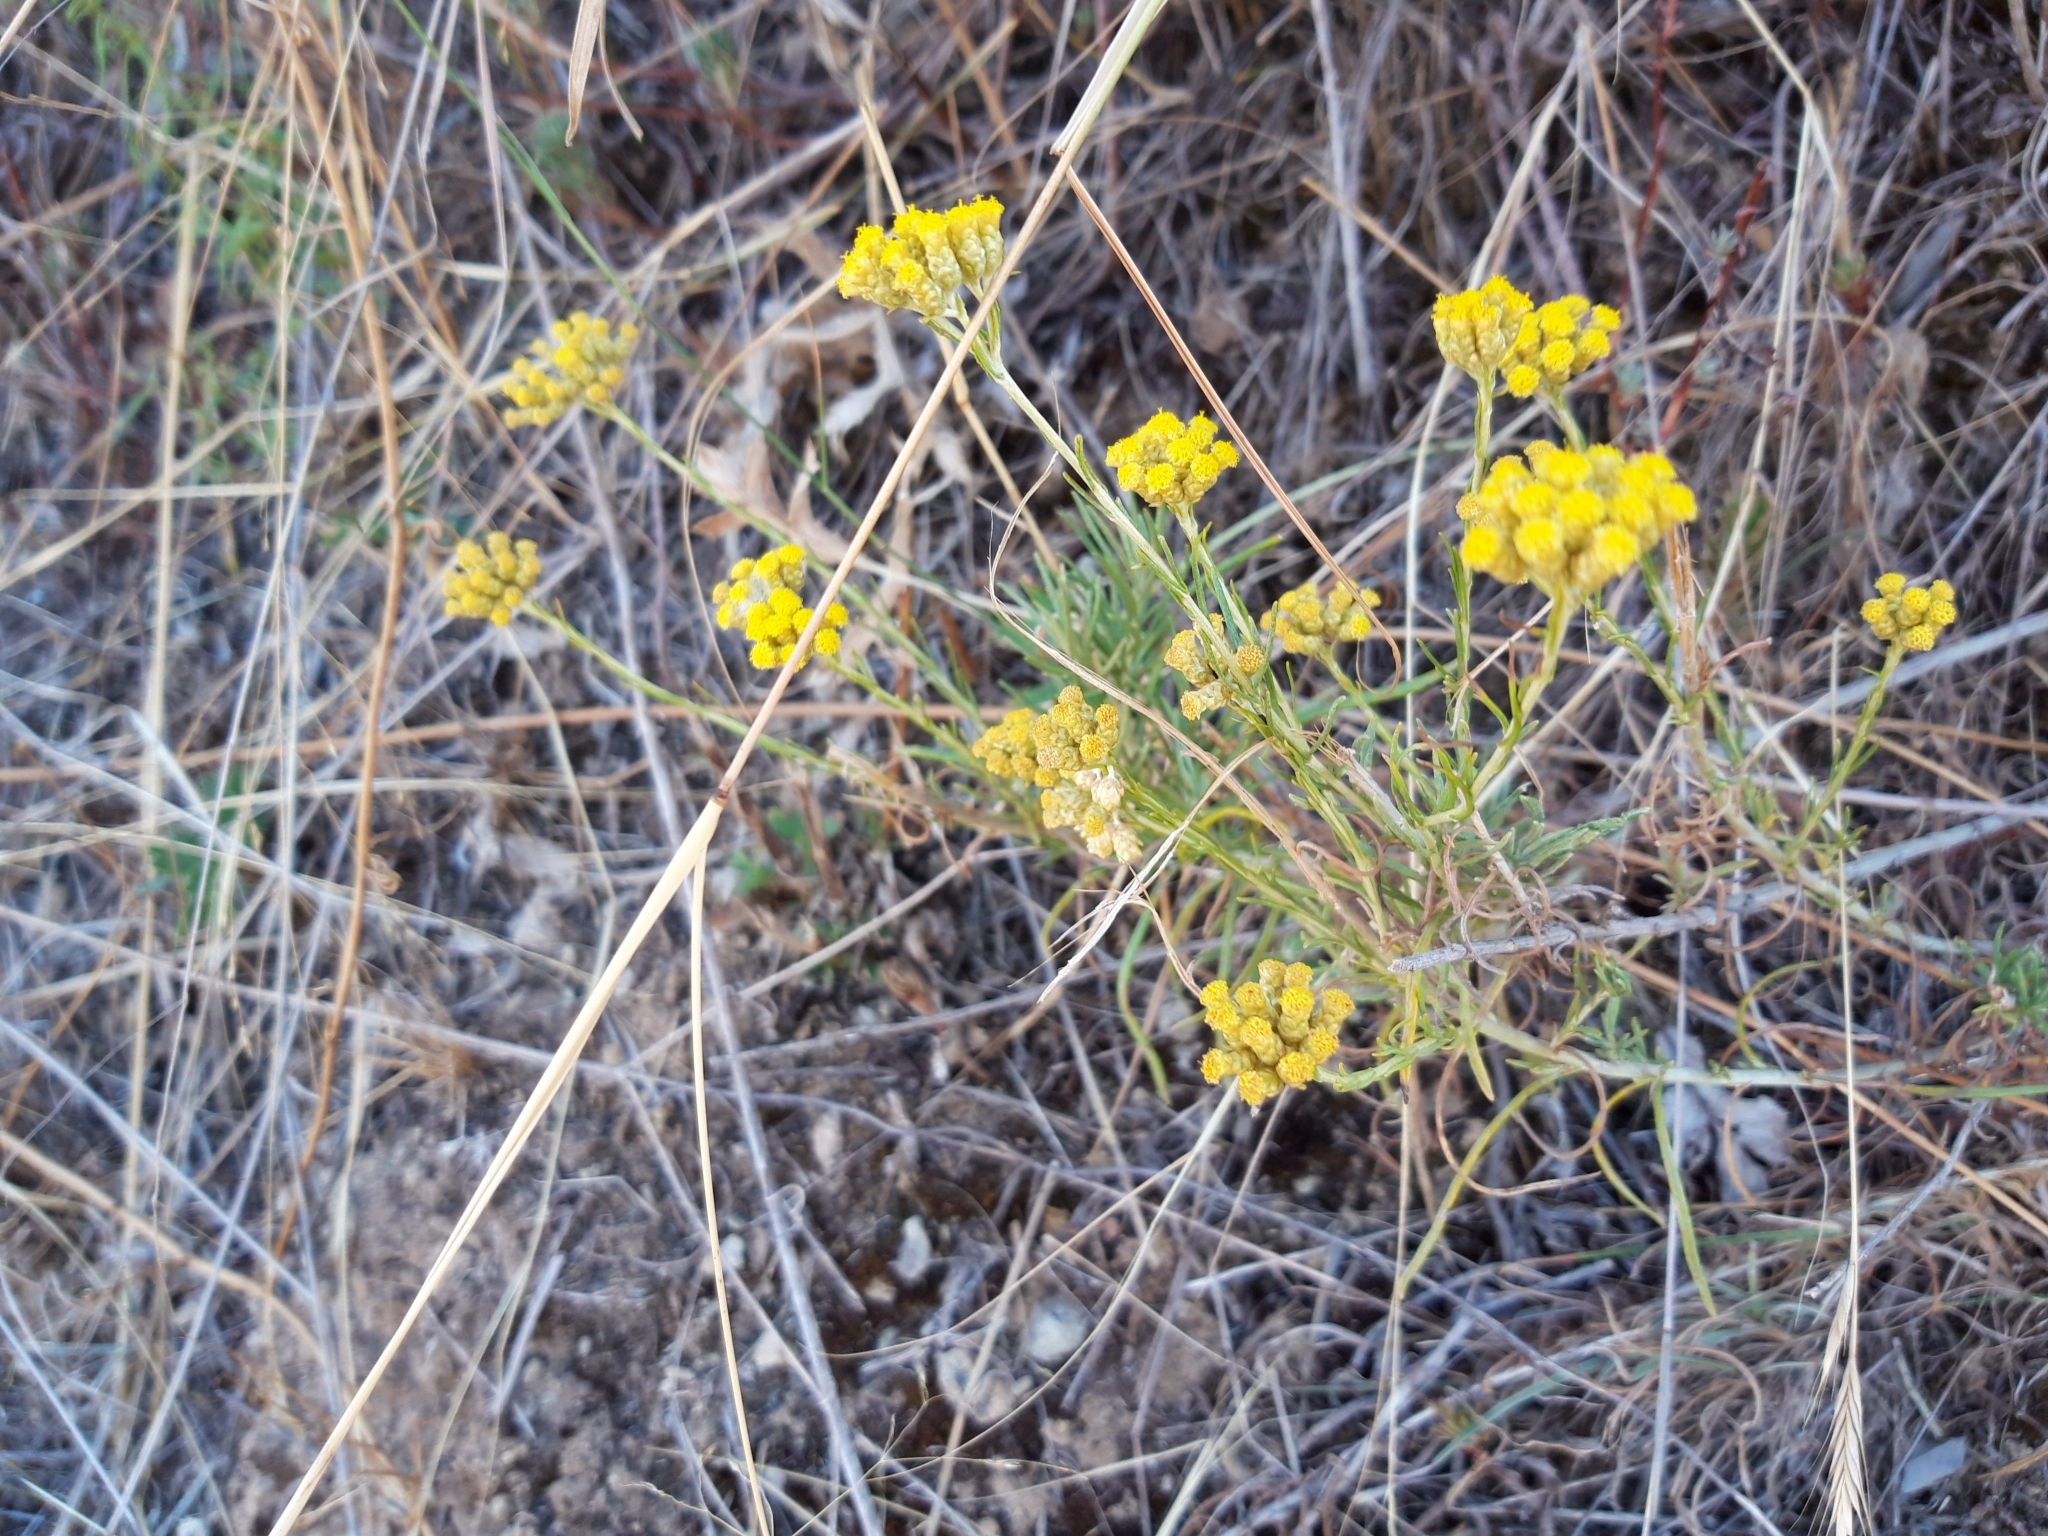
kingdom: Plantae
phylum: Tracheophyta
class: Magnoliopsida
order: Asterales
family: Asteraceae
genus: Helichrysum
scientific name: Helichrysum stoechas
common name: Goldilocks
